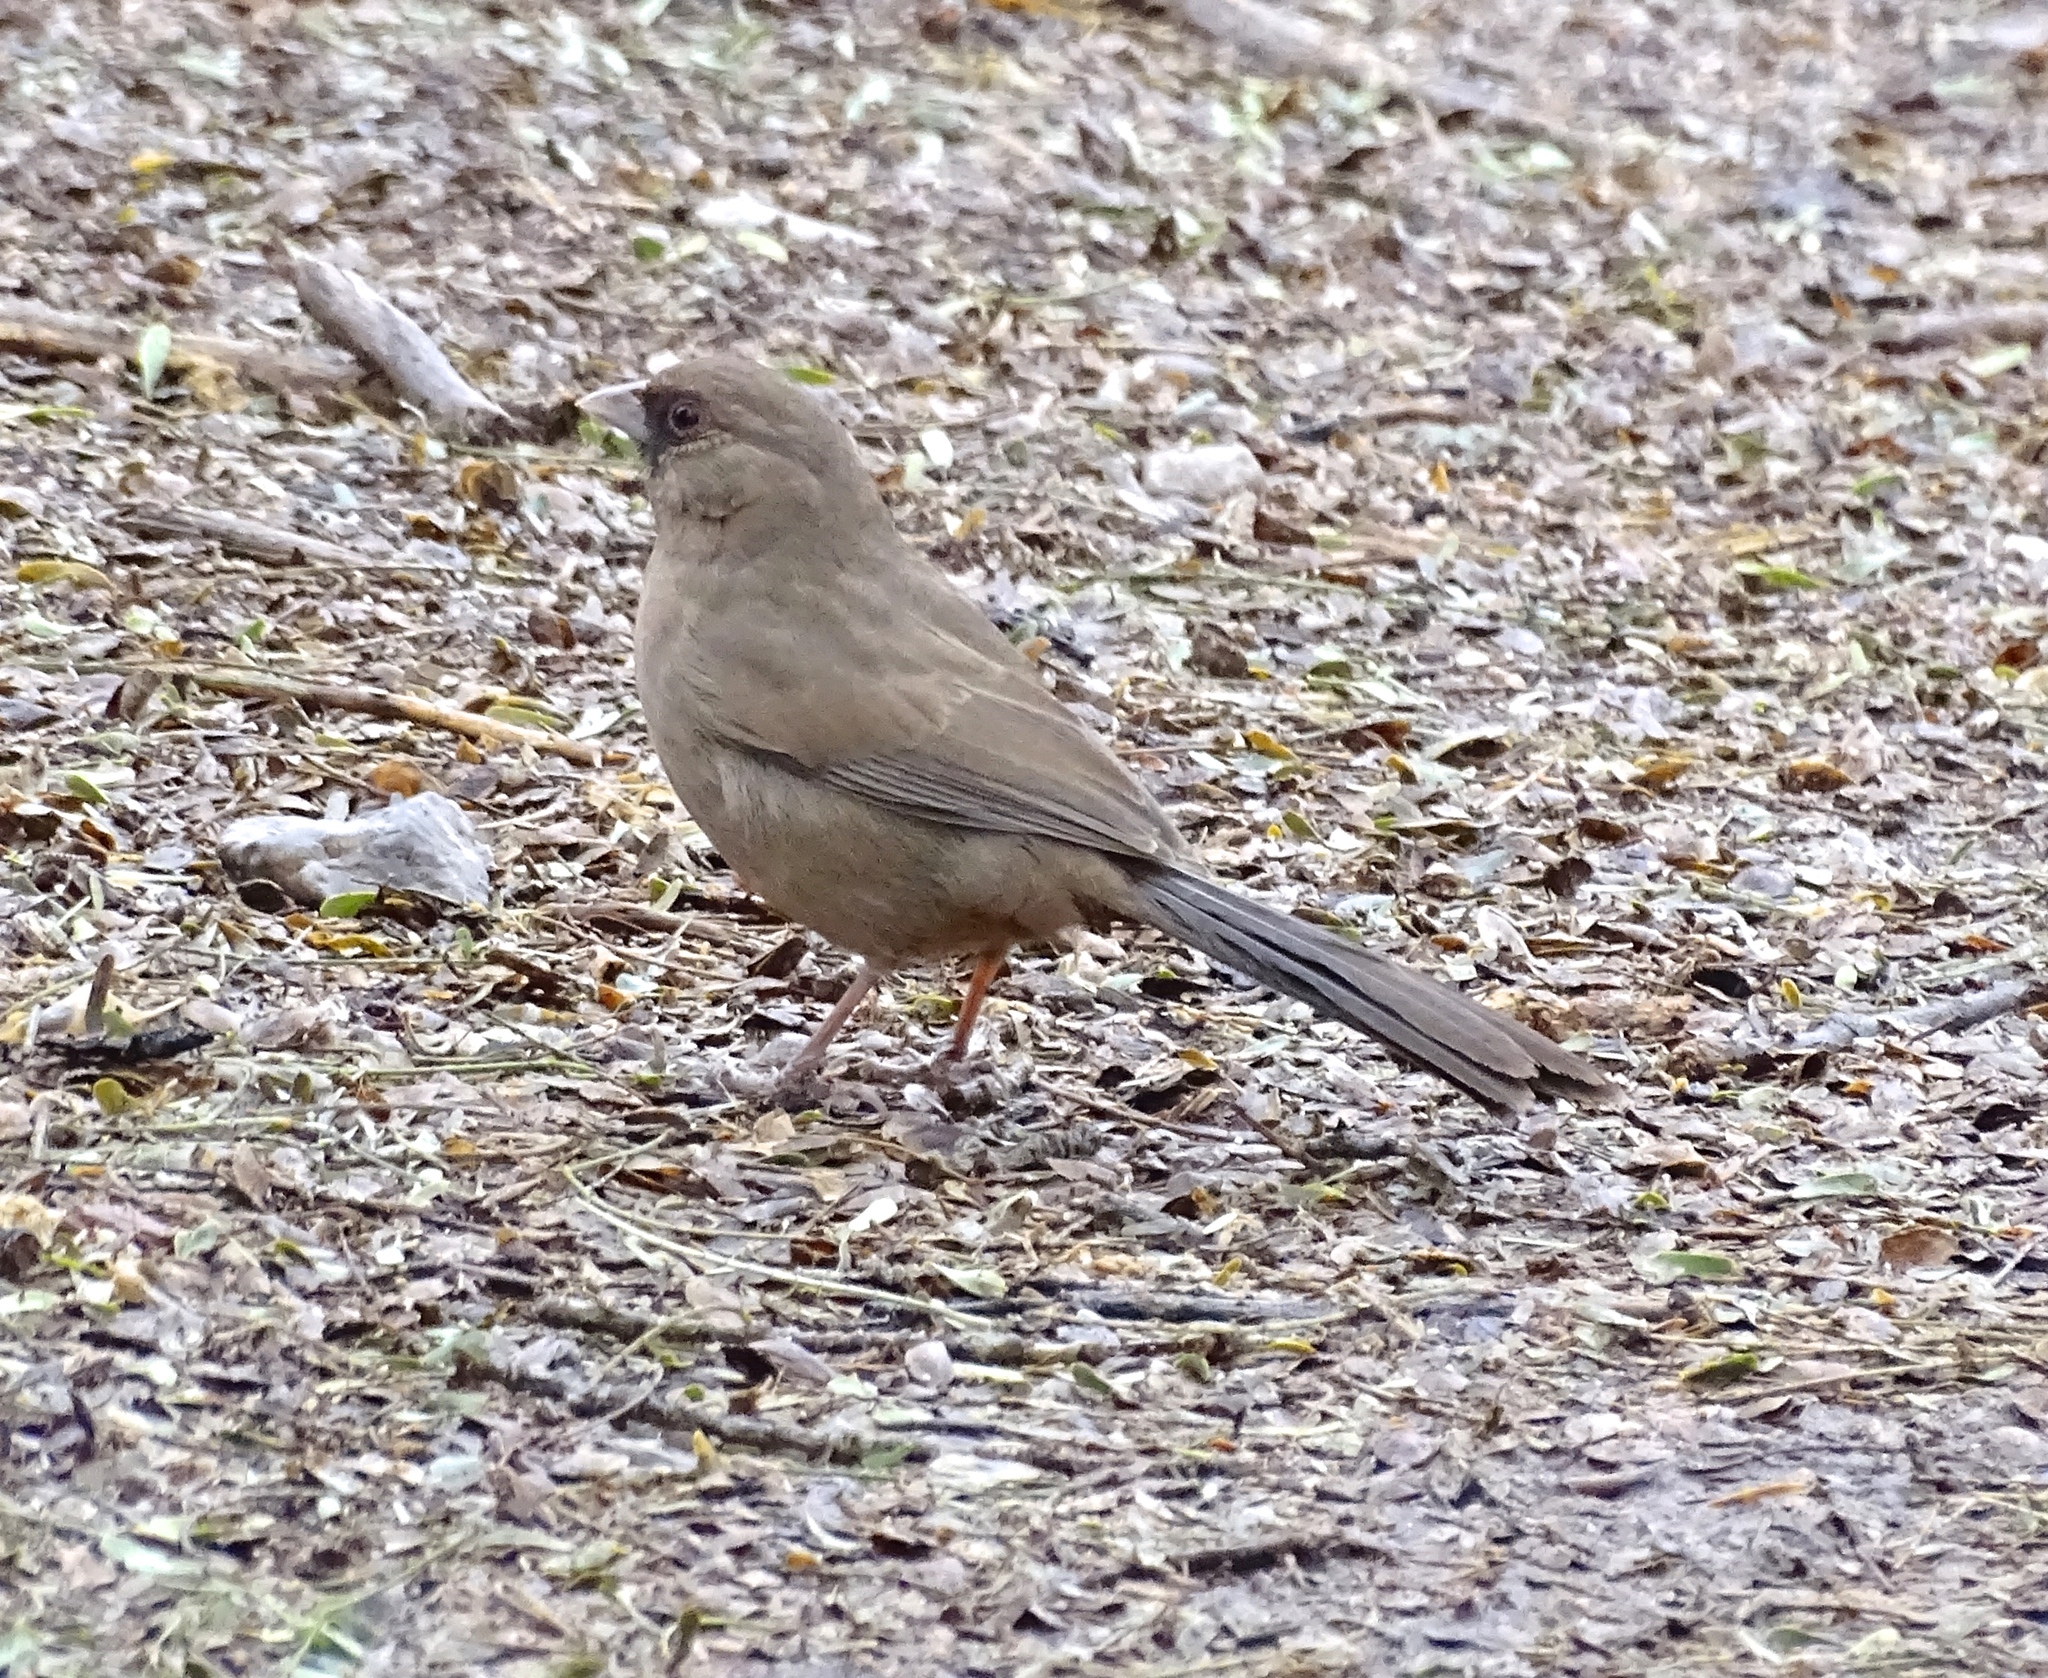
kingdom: Animalia
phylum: Chordata
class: Aves
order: Passeriformes
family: Passerellidae
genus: Melozone
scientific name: Melozone aberti
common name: Abert's towhee
